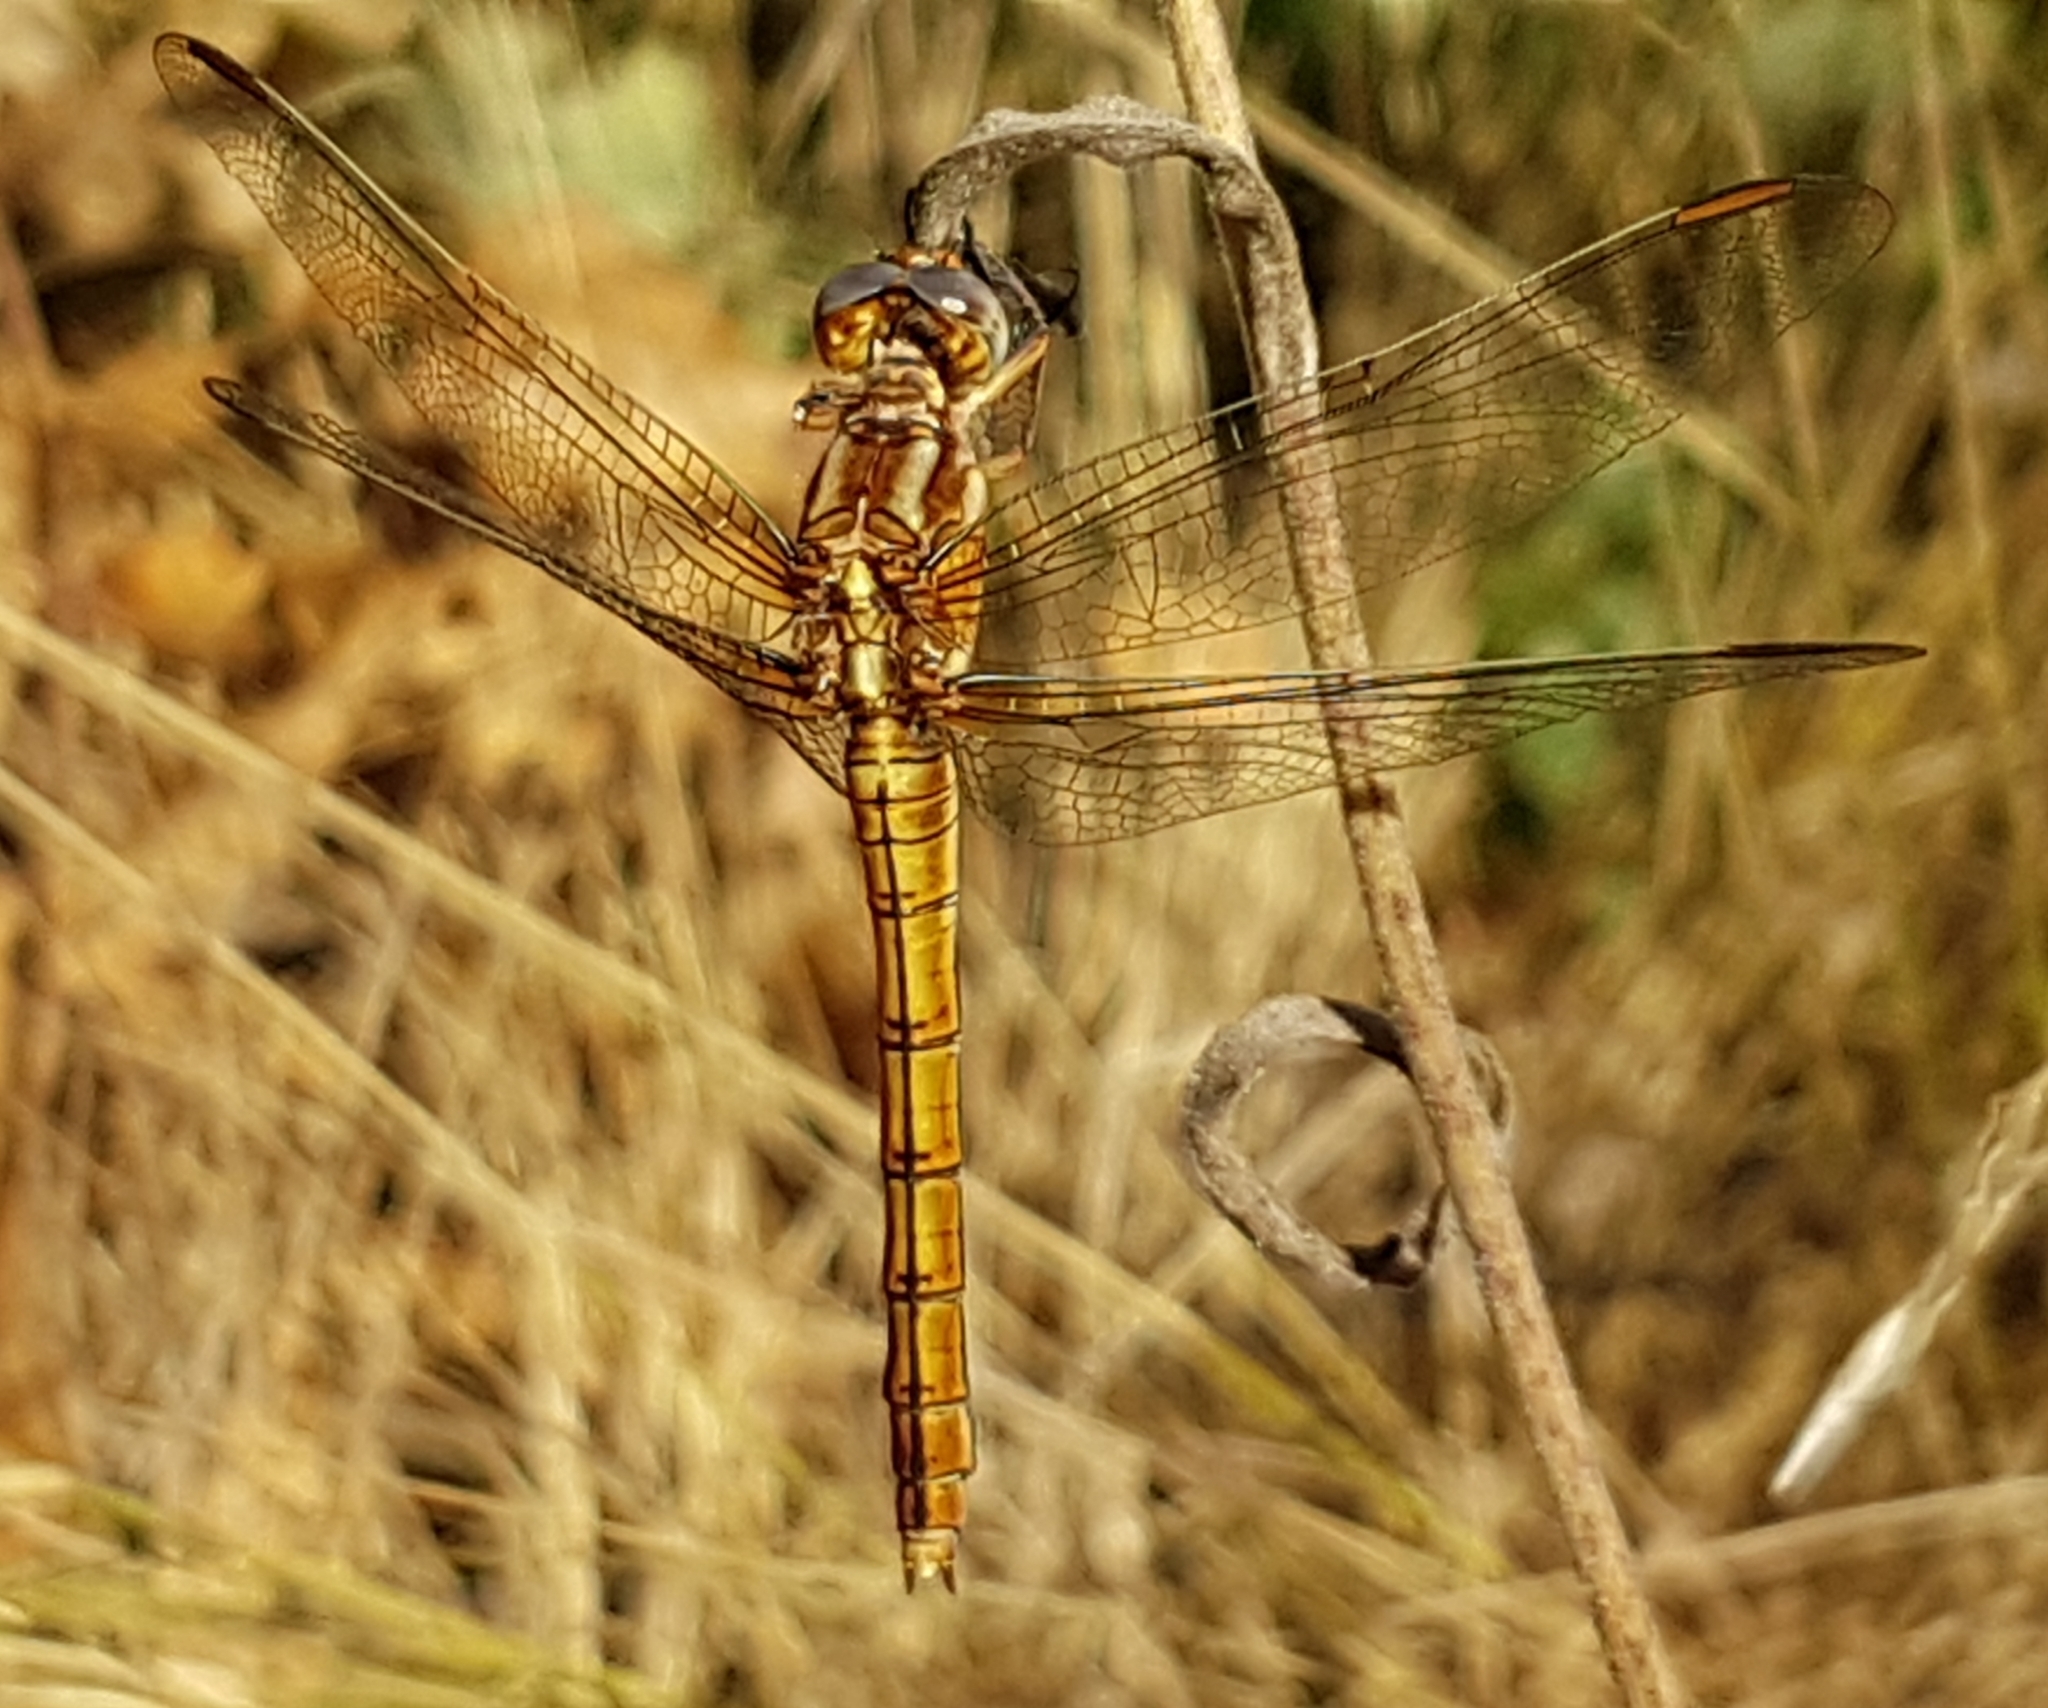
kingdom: Animalia
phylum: Arthropoda
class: Insecta
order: Odonata
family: Libellulidae
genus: Orthetrum
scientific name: Orthetrum coerulescens
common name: Keeled skimmer
